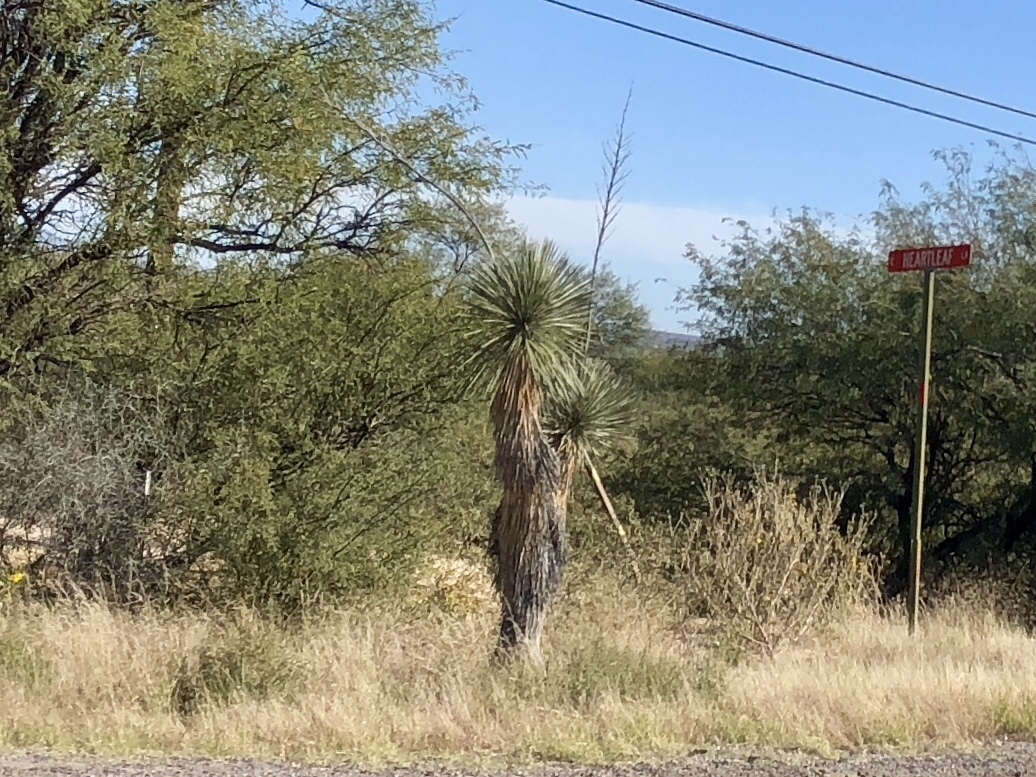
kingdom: Plantae
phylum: Tracheophyta
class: Liliopsida
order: Asparagales
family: Asparagaceae
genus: Yucca
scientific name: Yucca elata
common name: Palmella
